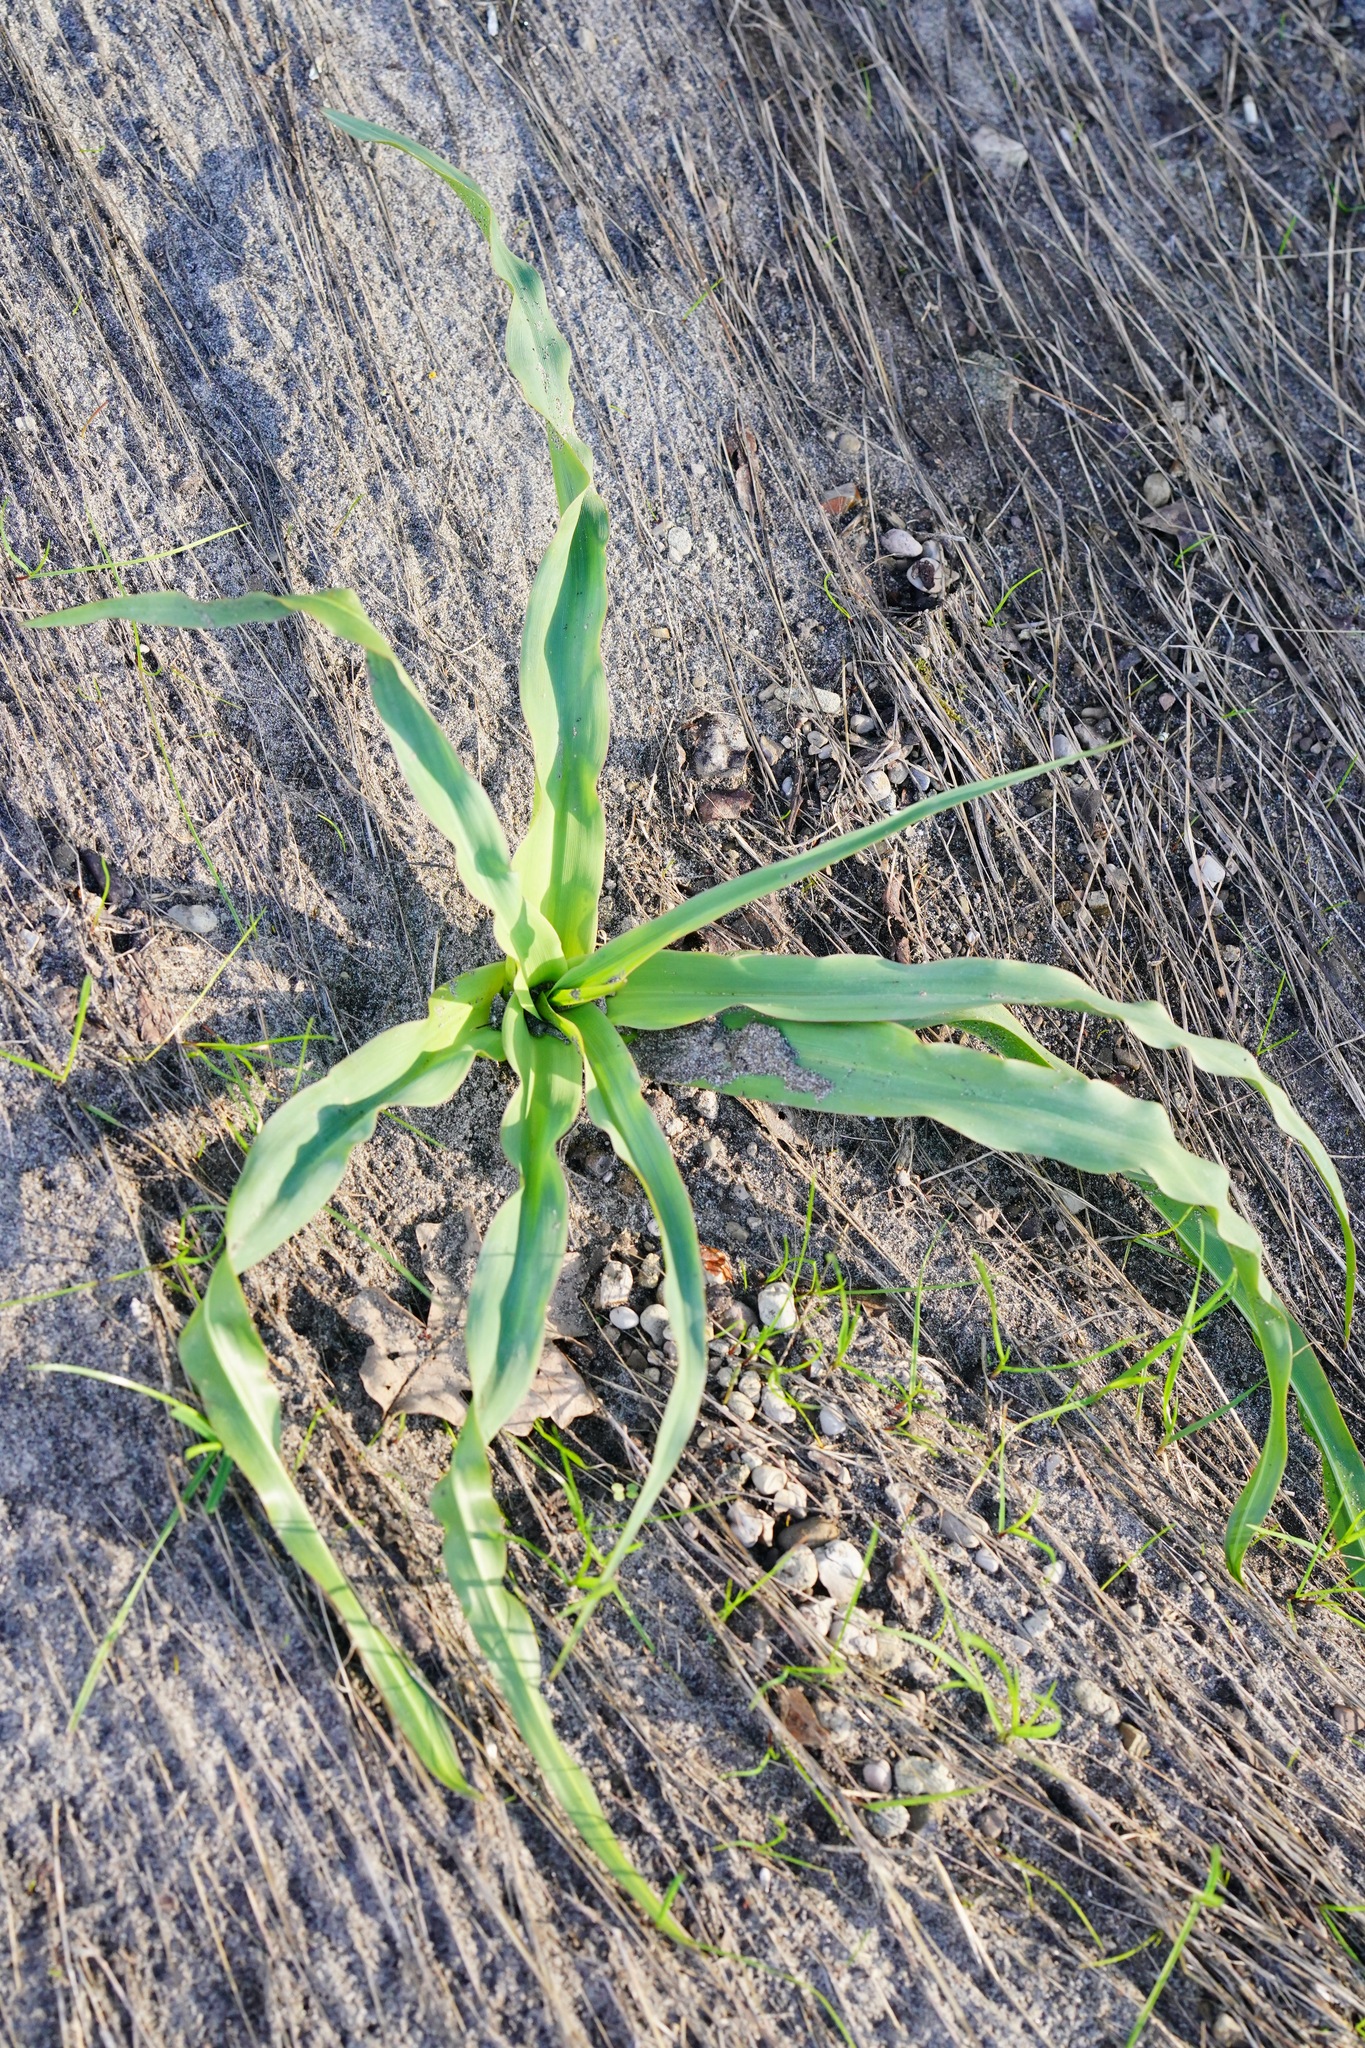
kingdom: Plantae
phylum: Tracheophyta
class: Liliopsida
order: Asparagales
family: Asparagaceae
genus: Chlorogalum
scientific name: Chlorogalum pomeridianum
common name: Amole
